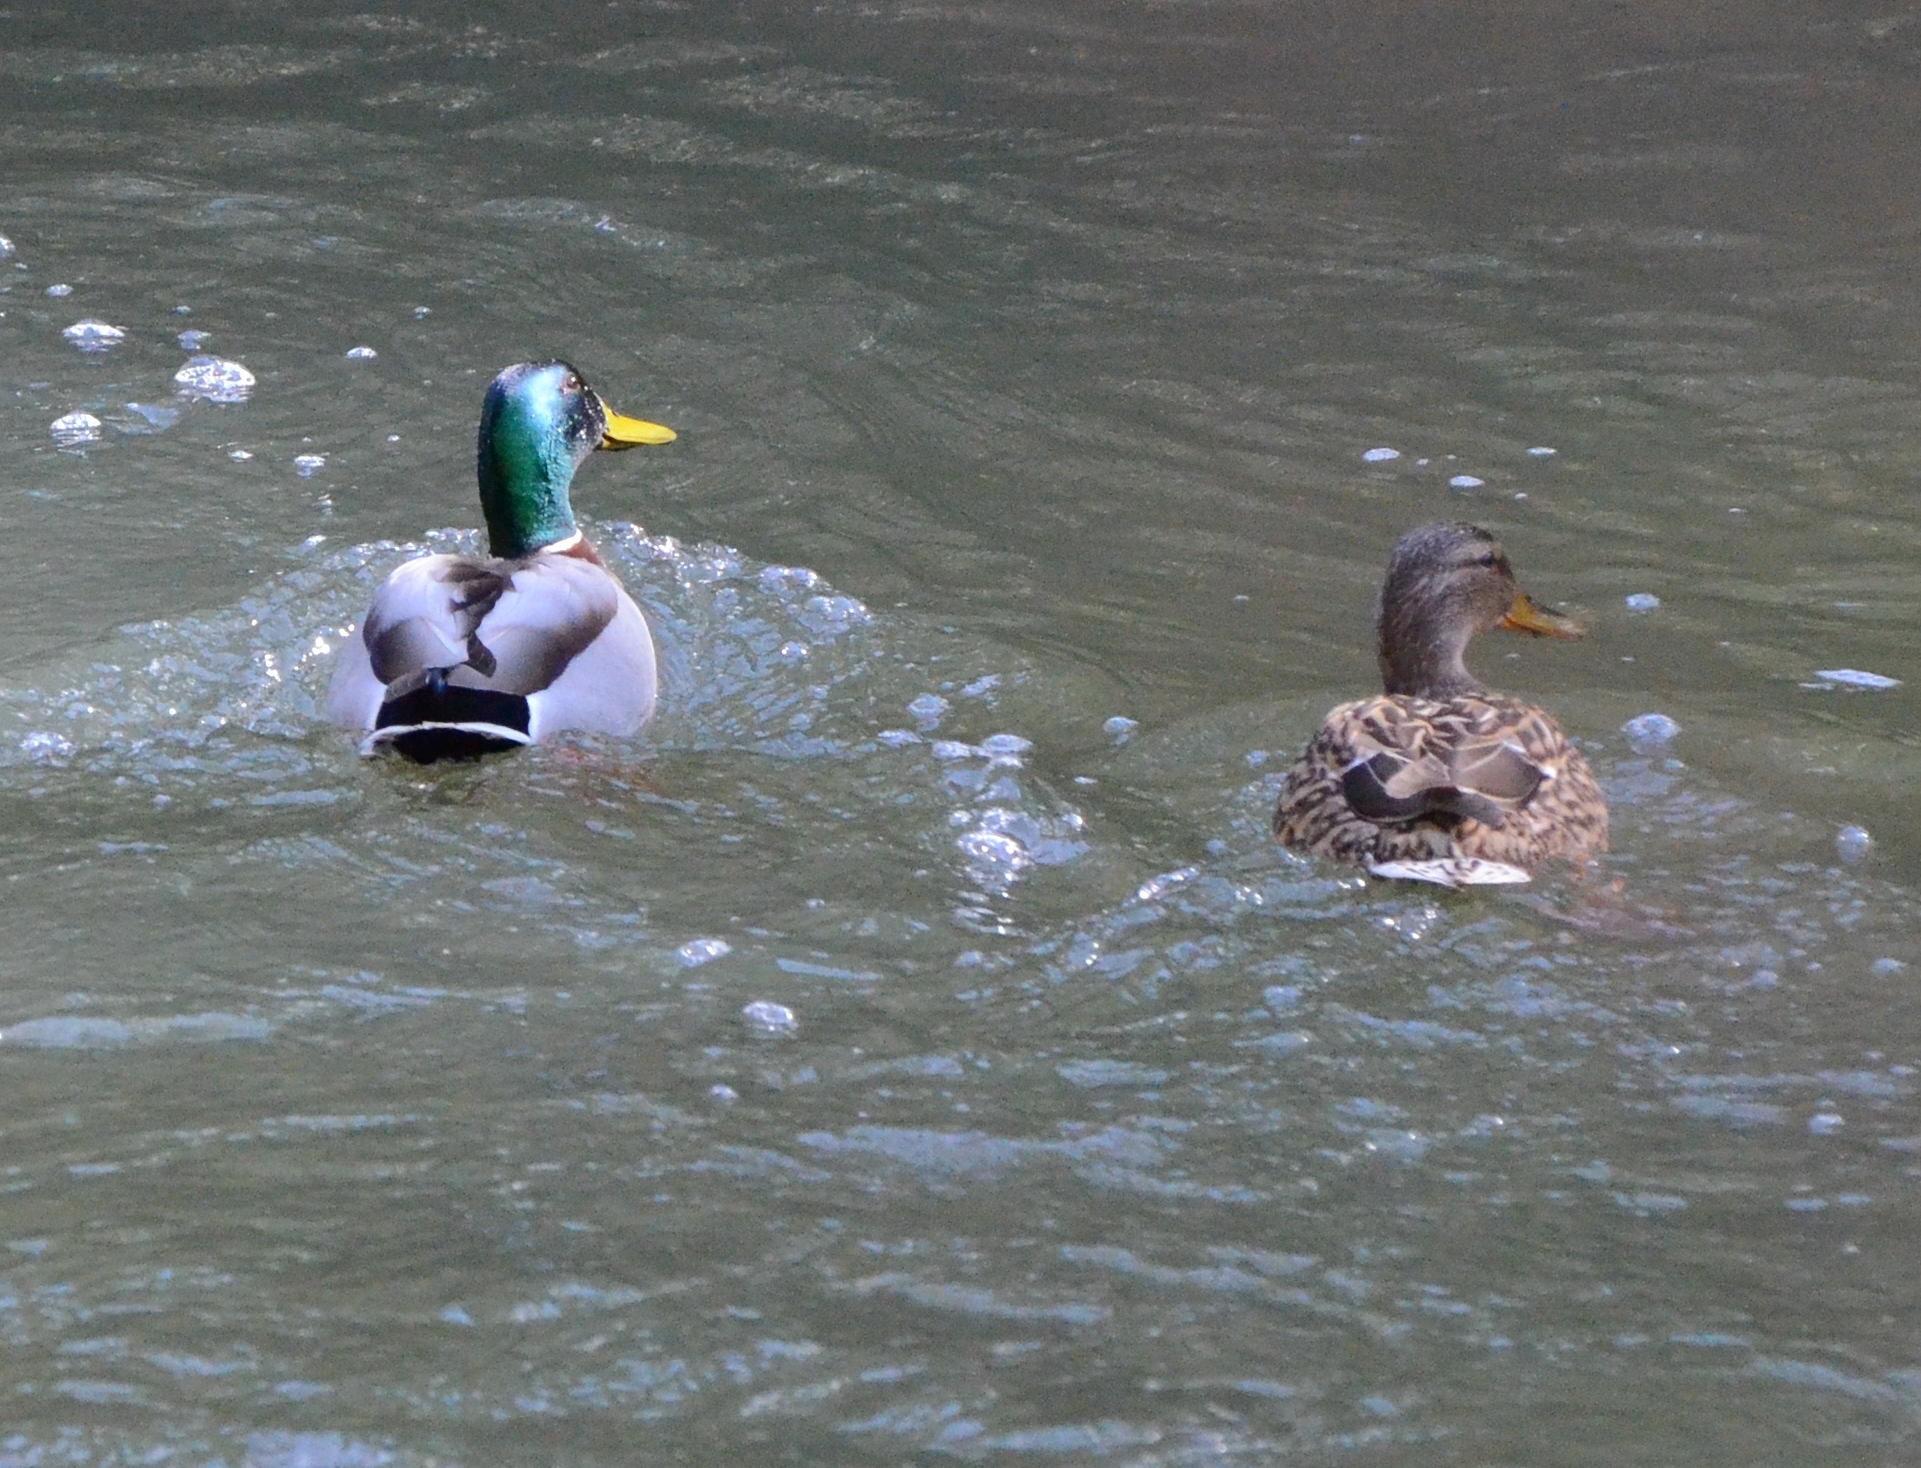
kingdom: Animalia
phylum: Chordata
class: Aves
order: Anseriformes
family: Anatidae
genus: Anas
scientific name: Anas platyrhynchos
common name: Mallard
